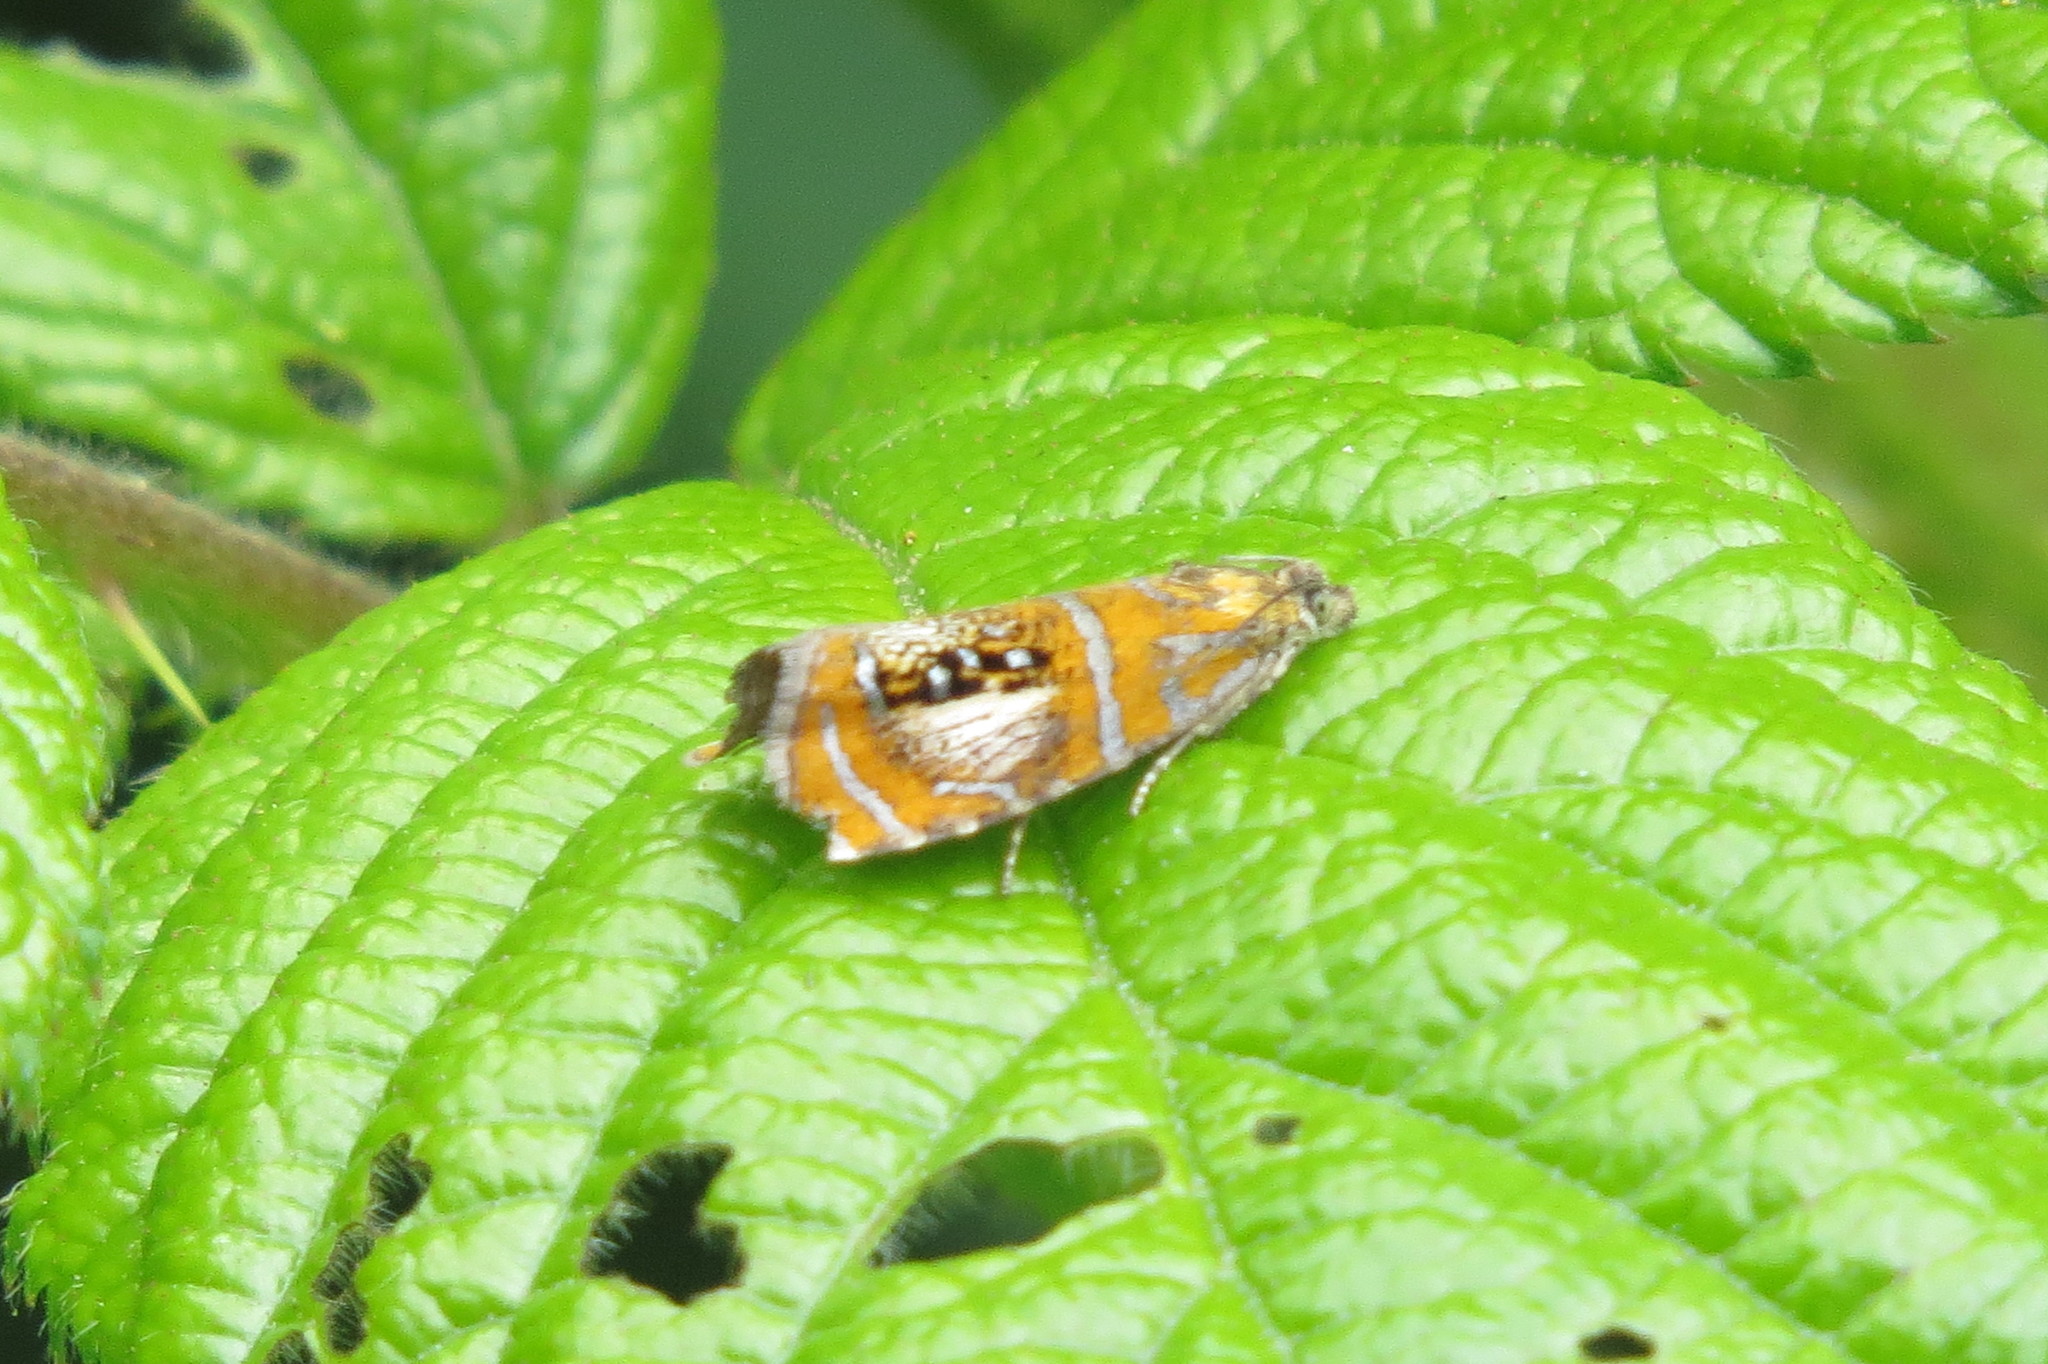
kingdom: Animalia
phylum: Arthropoda
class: Insecta
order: Lepidoptera
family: Tortricidae
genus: Olethreutes
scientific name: Olethreutes arcuella
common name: Arched marble
